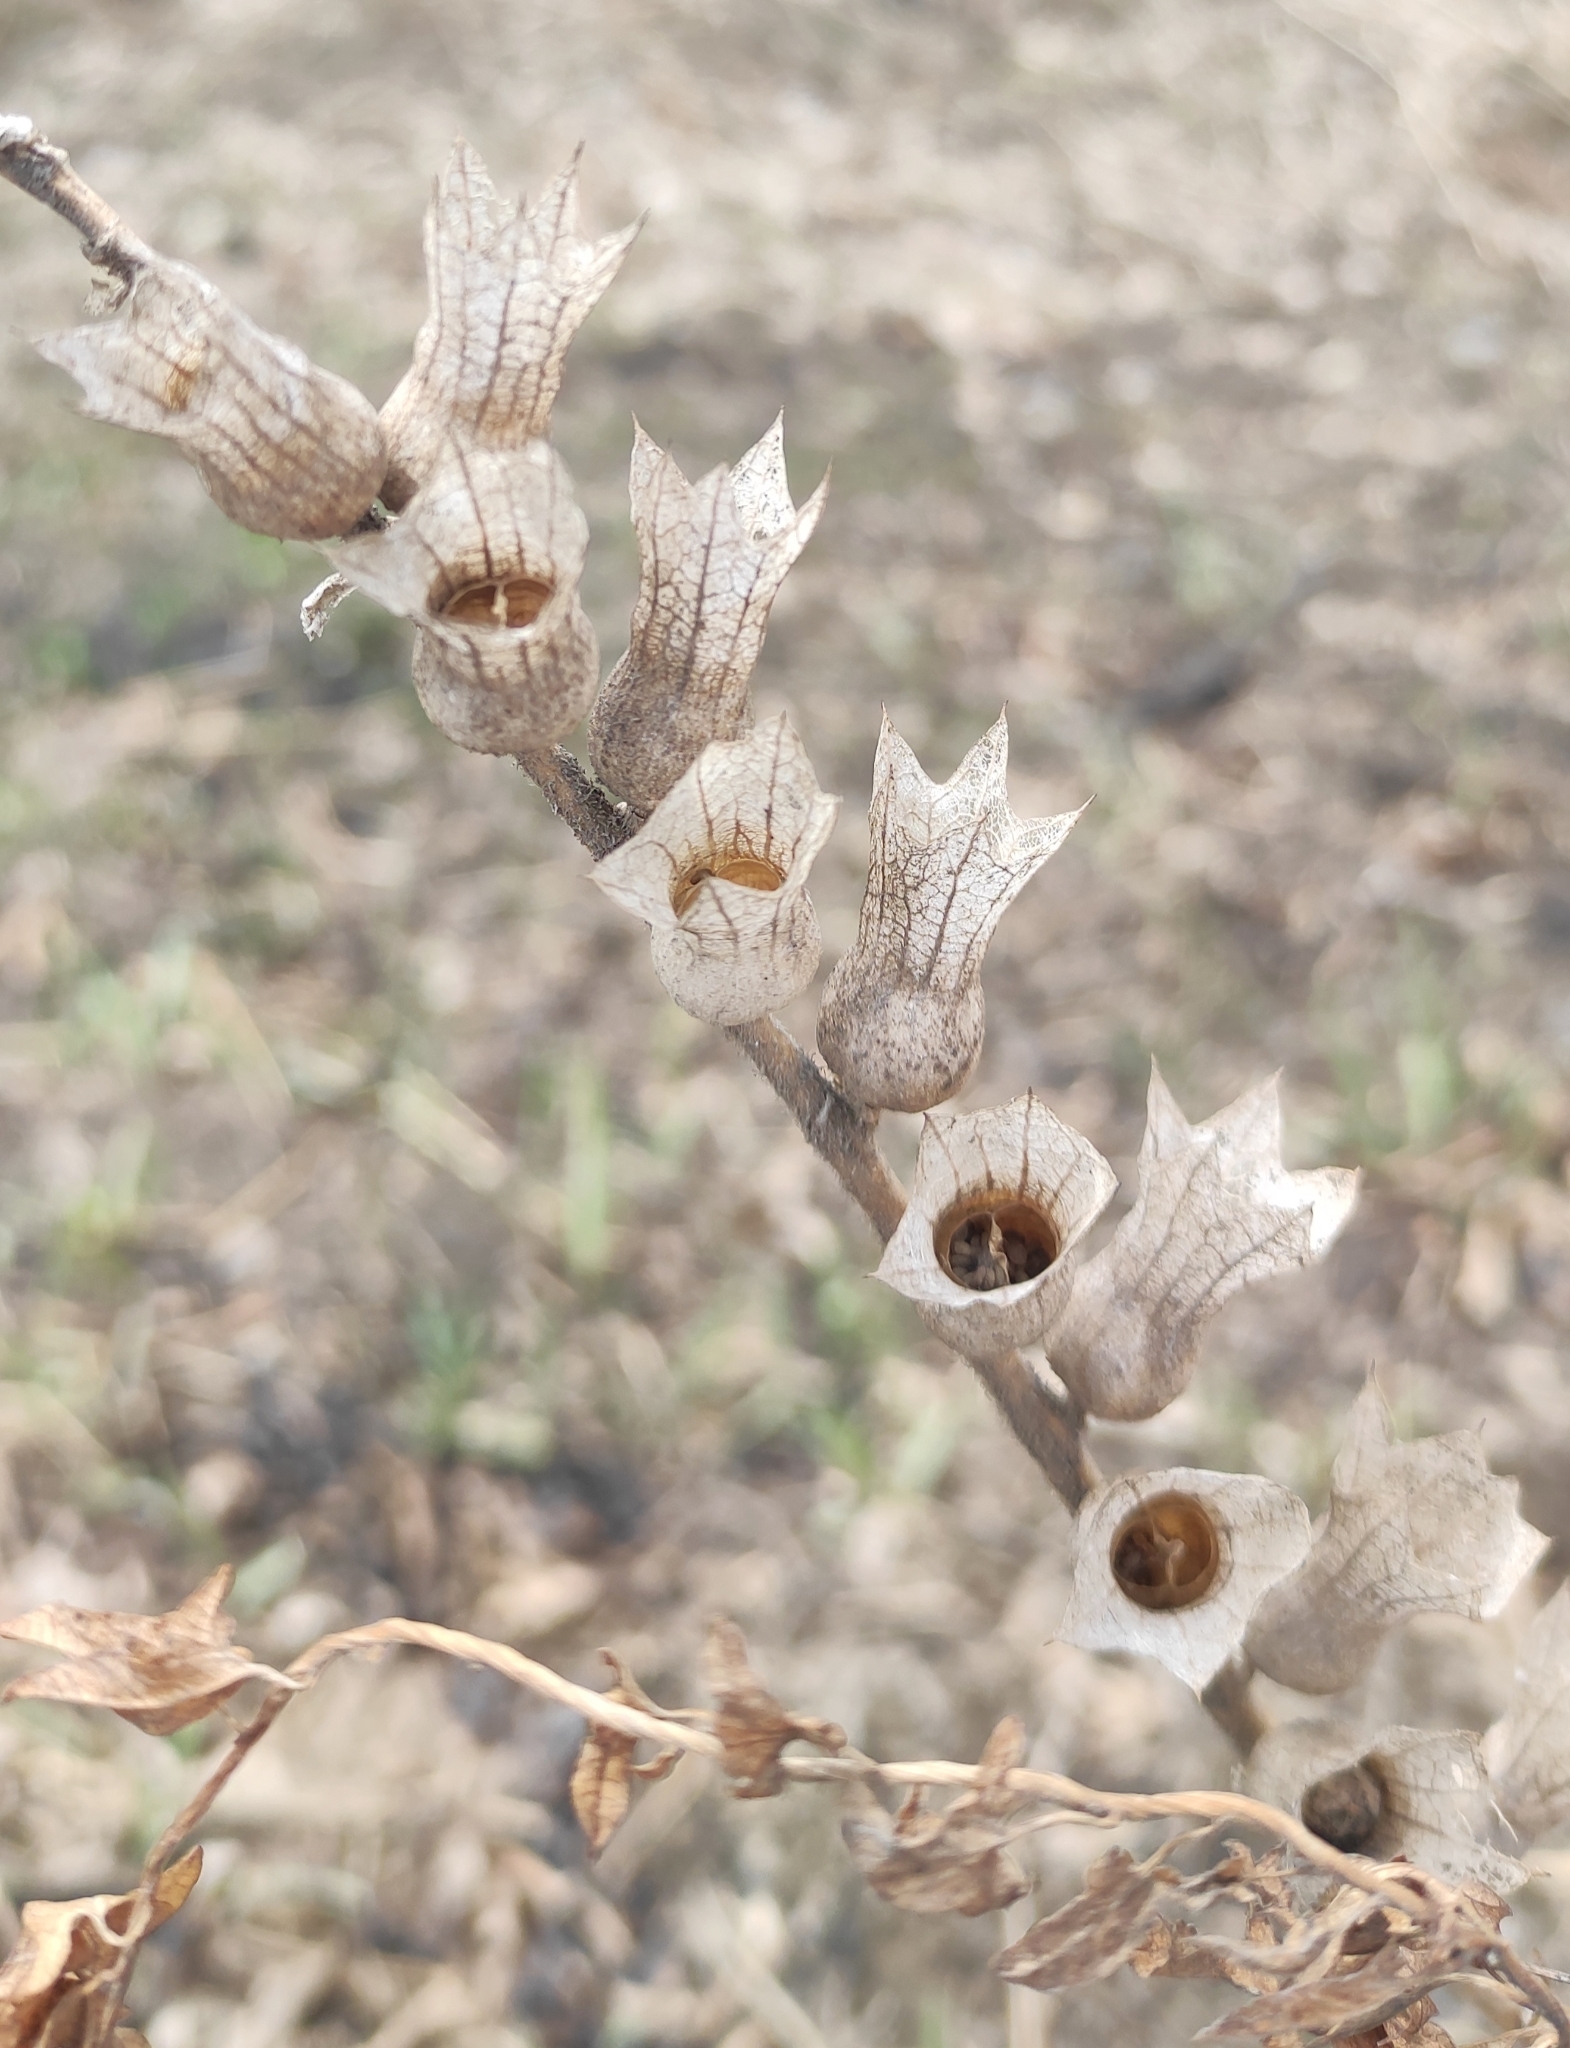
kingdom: Plantae
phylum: Tracheophyta
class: Magnoliopsida
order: Solanales
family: Solanaceae
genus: Hyoscyamus
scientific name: Hyoscyamus niger
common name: Henbane
